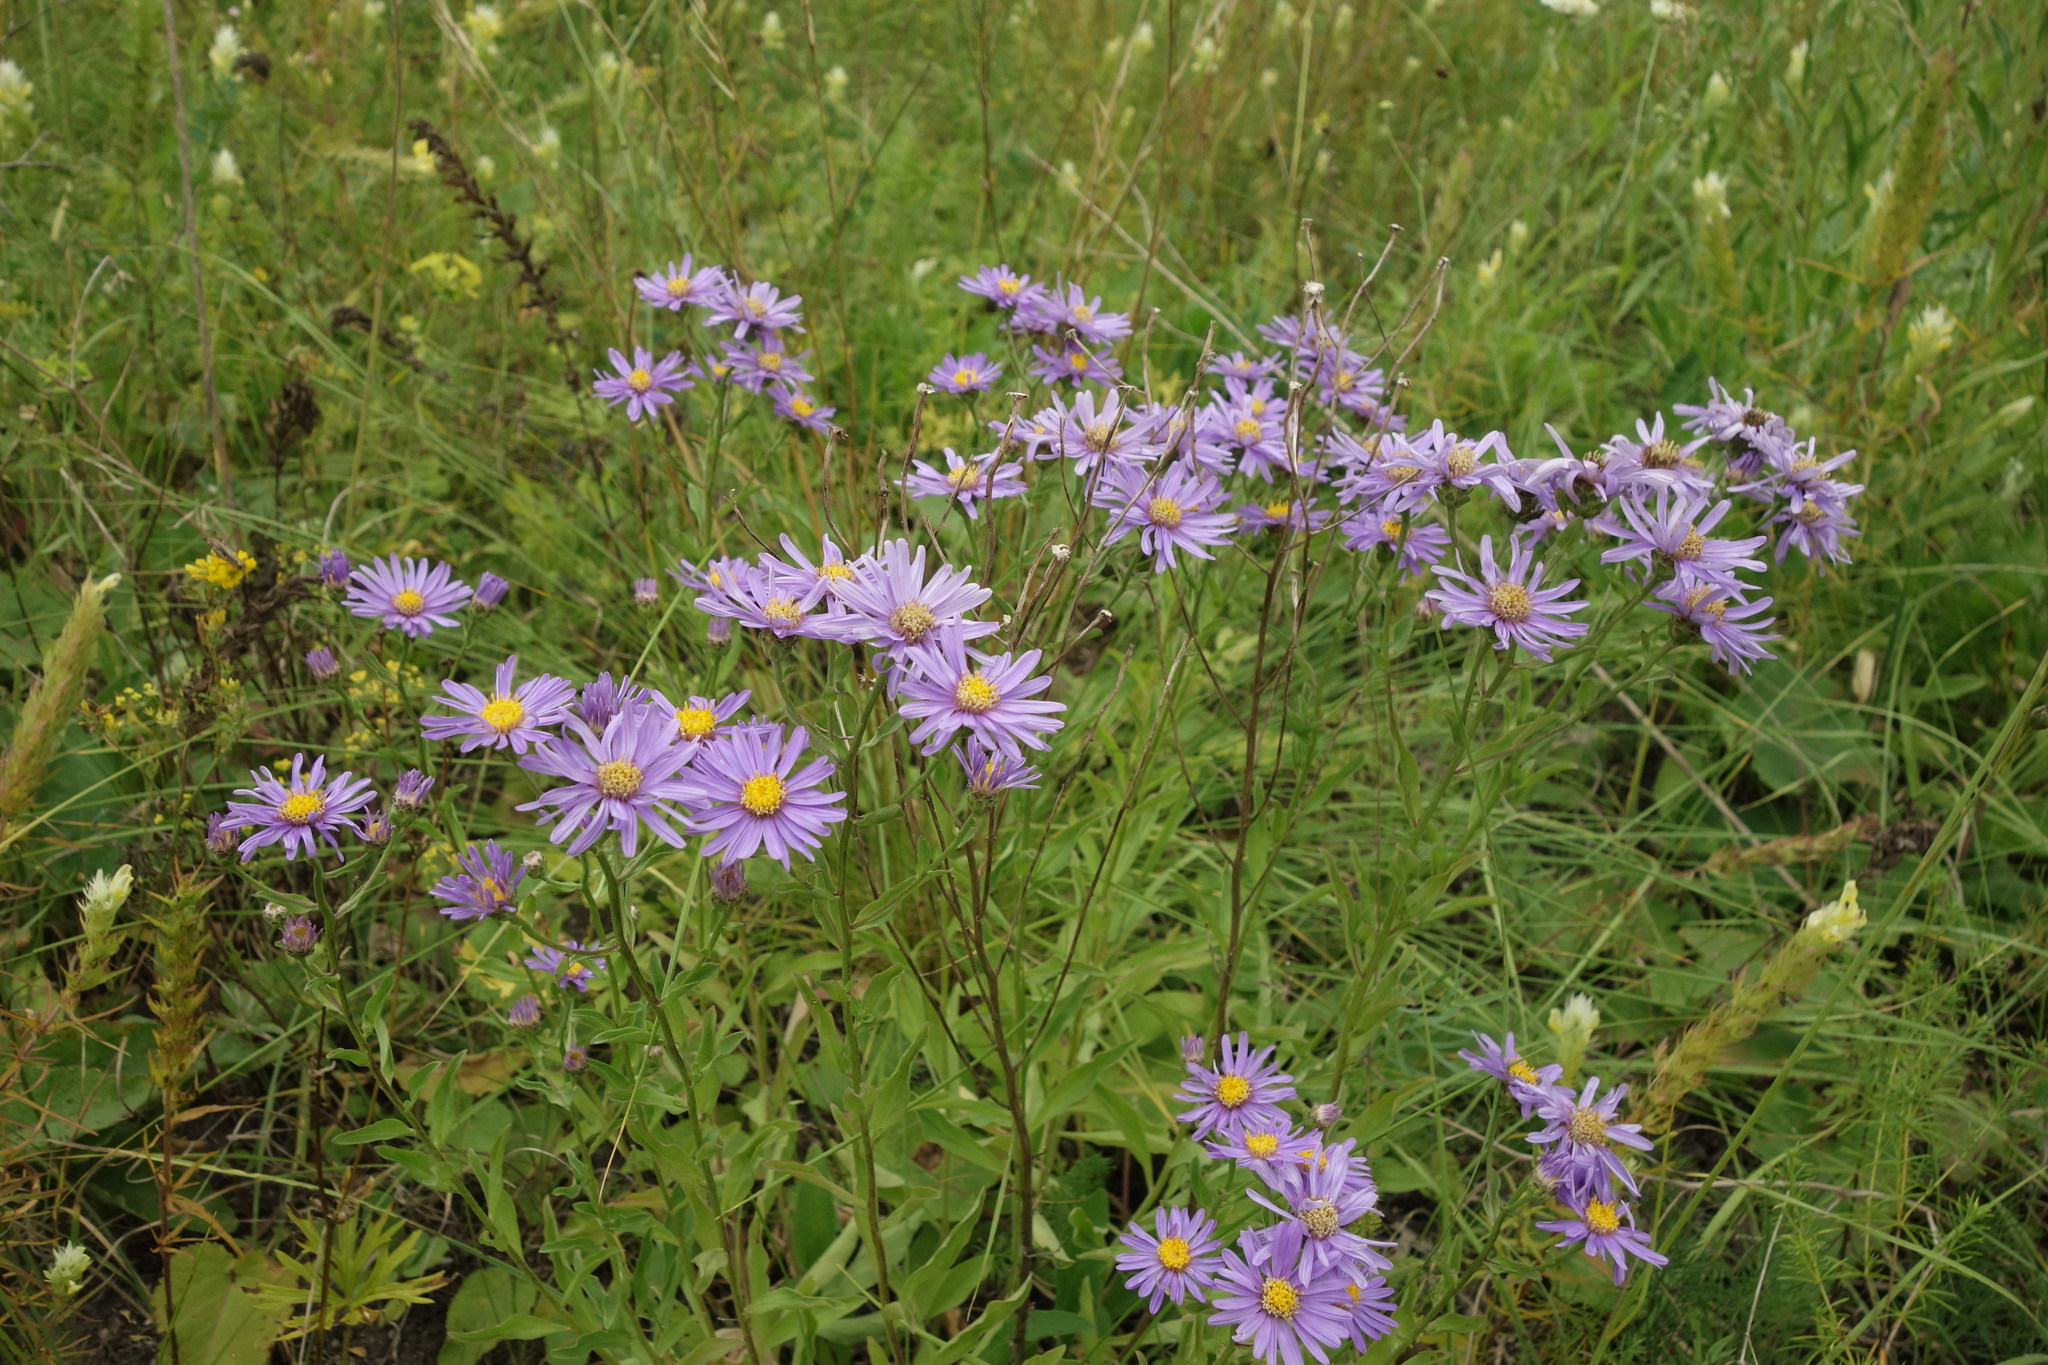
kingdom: Plantae
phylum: Tracheophyta
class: Magnoliopsida
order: Asterales
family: Asteraceae
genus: Aster
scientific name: Aster amellus
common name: European michaelmas daisy
